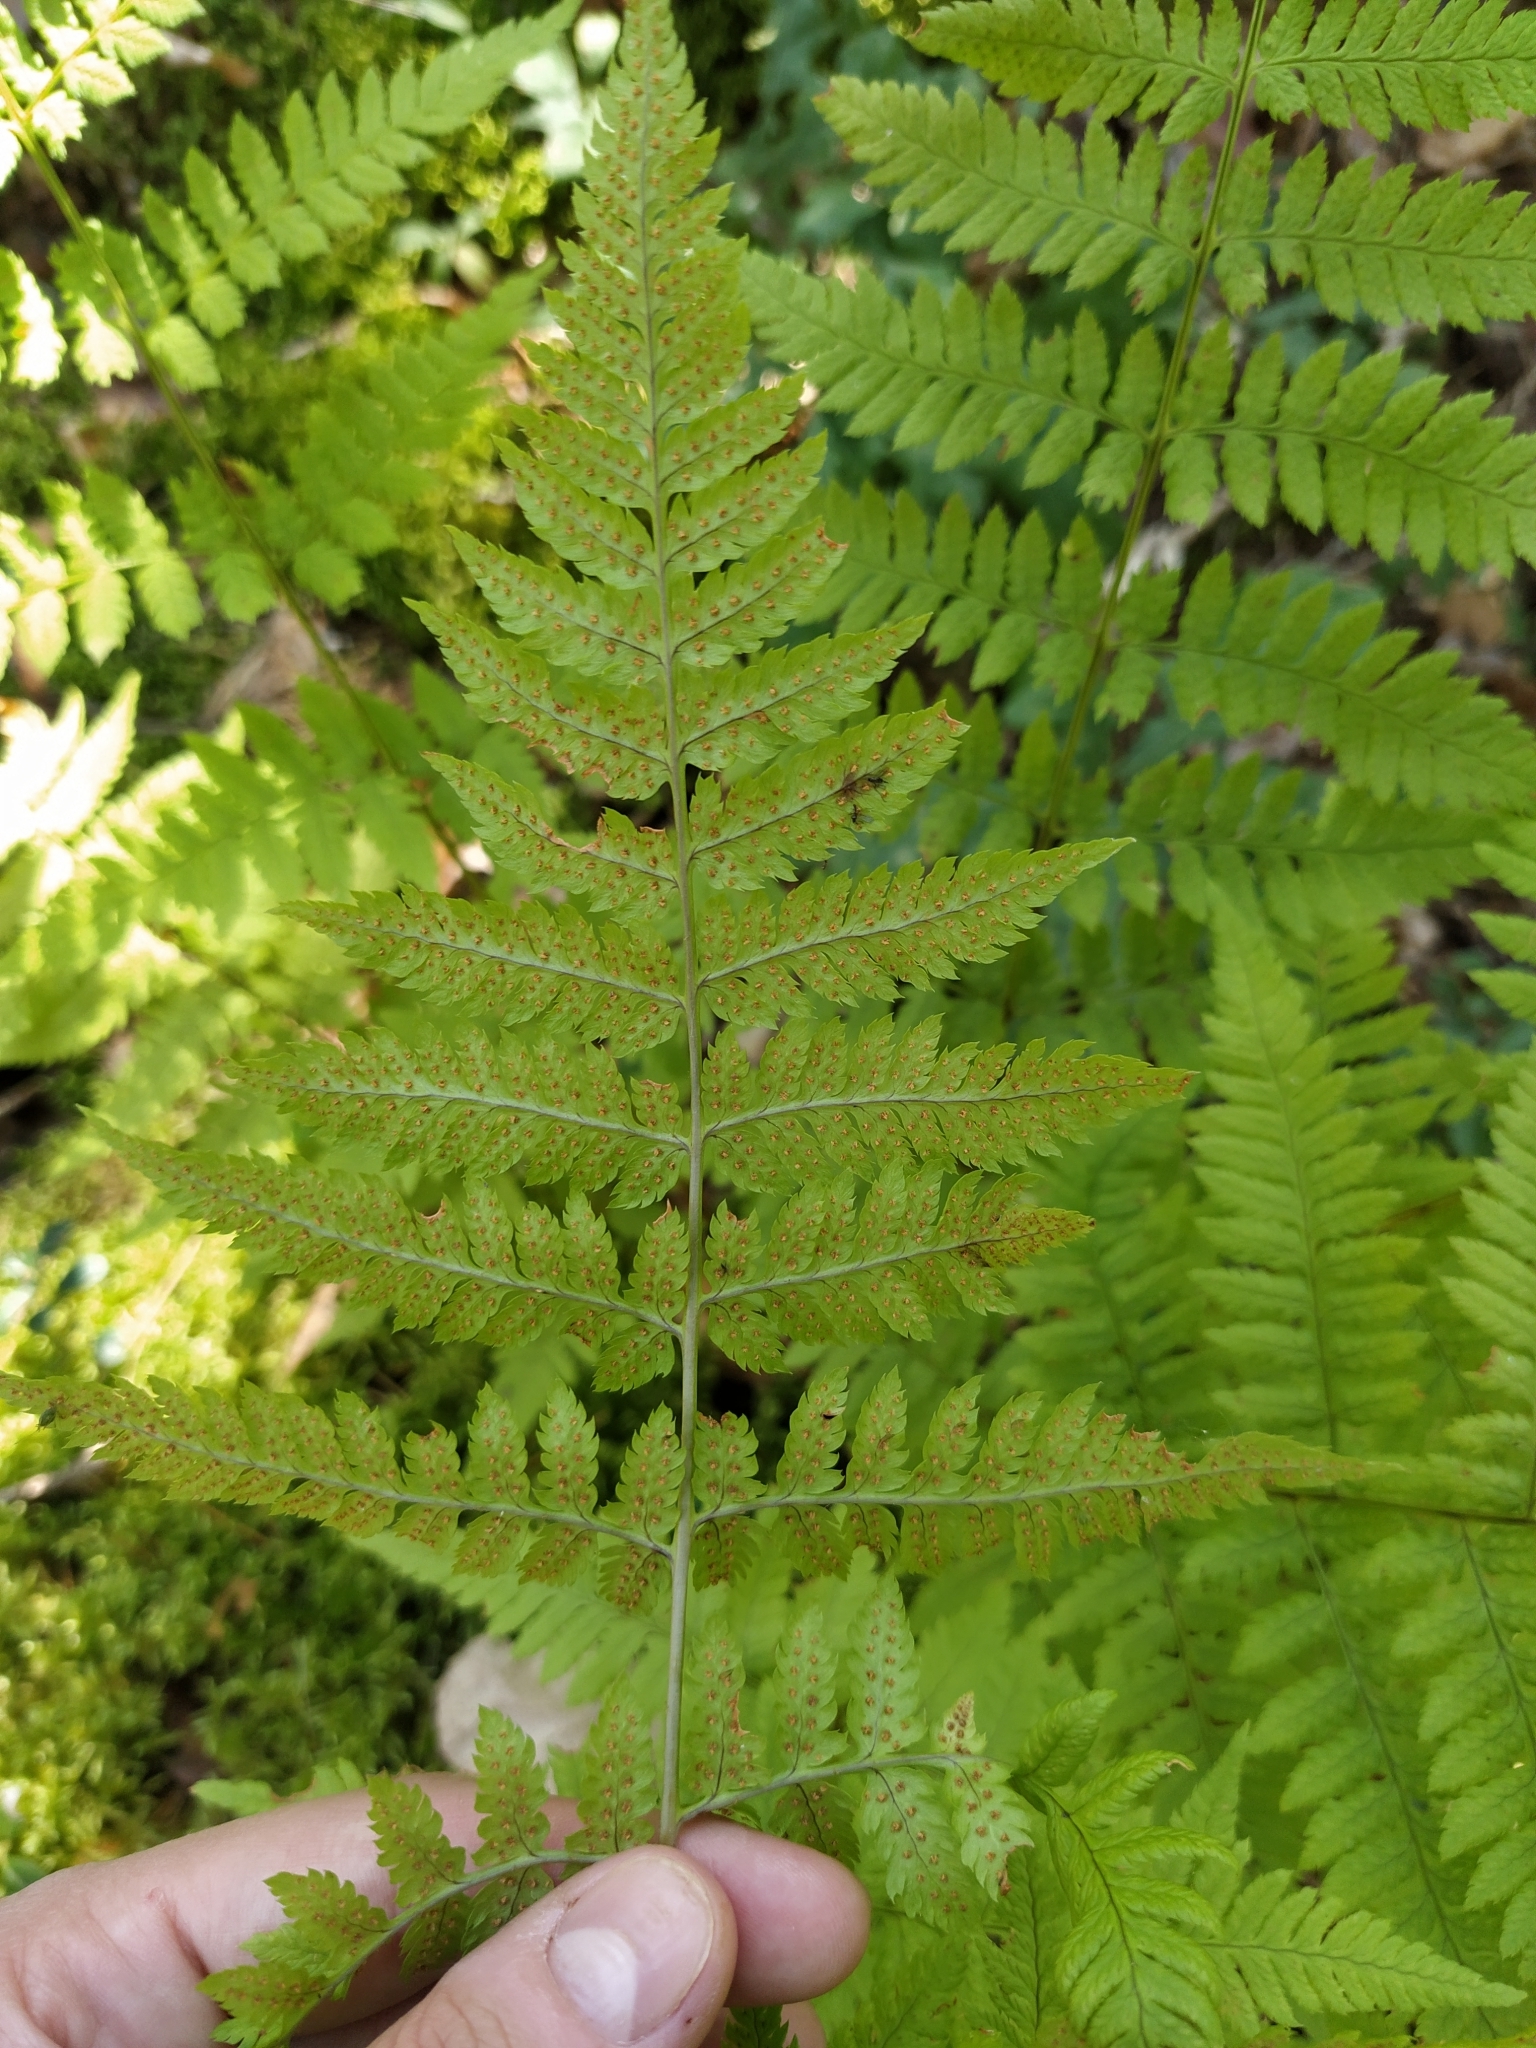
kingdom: Plantae
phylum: Tracheophyta
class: Polypodiopsida
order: Polypodiales
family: Dryopteridaceae
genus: Dryopteris
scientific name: Dryopteris carthusiana
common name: Narrow buckler-fern
